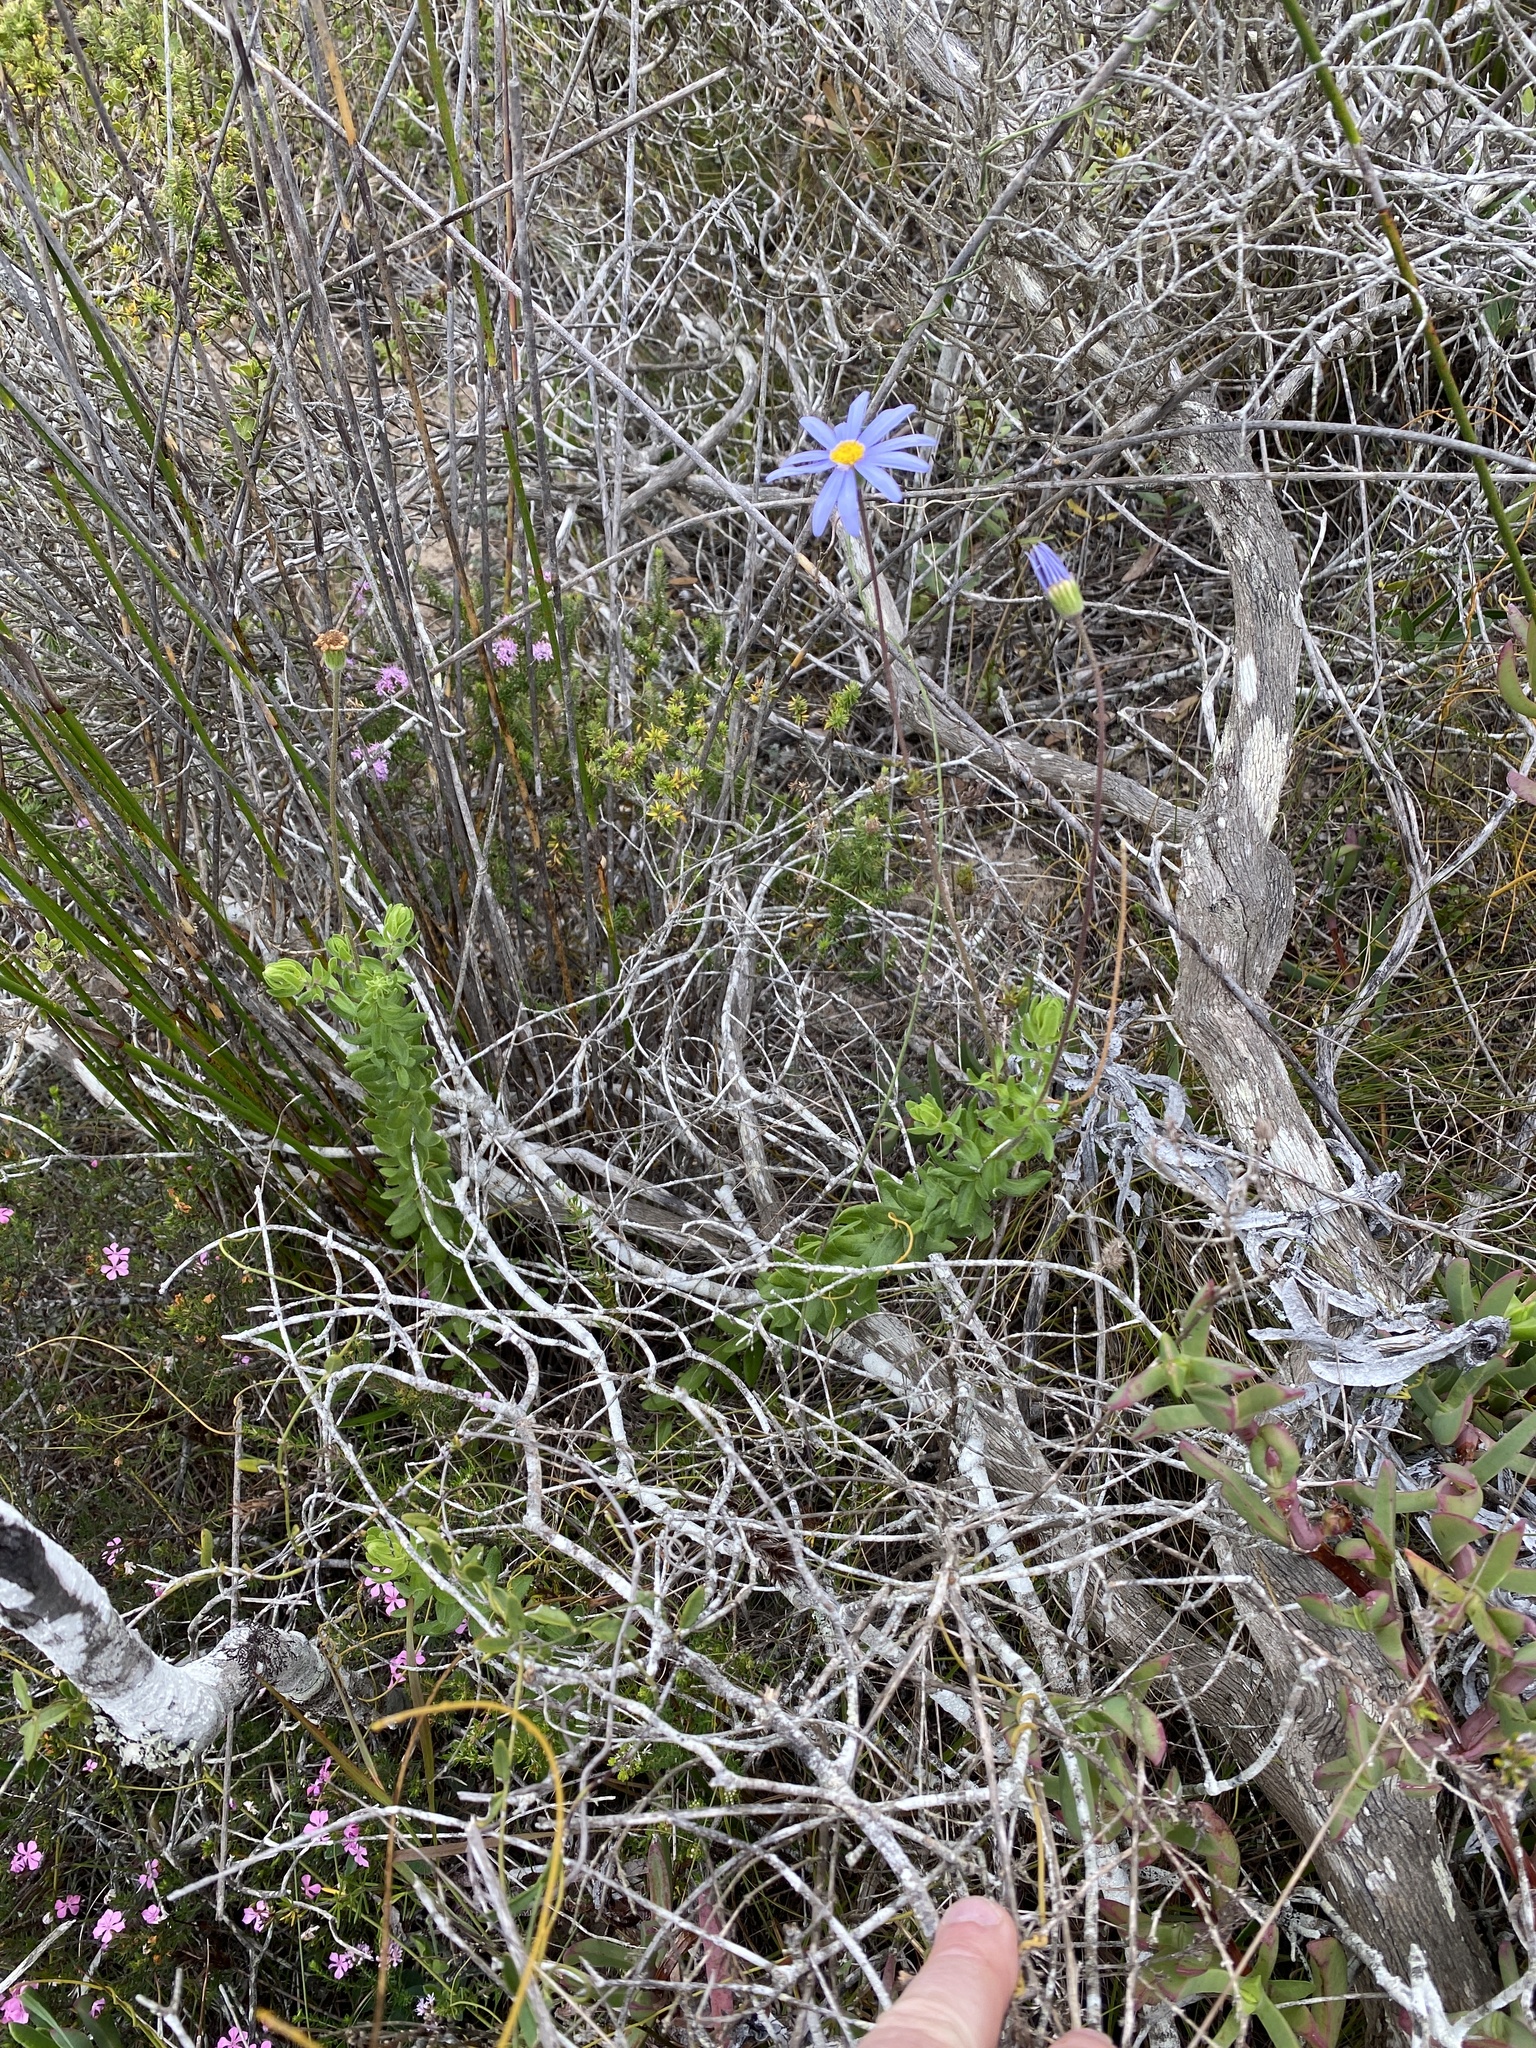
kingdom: Plantae
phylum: Tracheophyta
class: Magnoliopsida
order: Asterales
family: Asteraceae
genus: Felicia
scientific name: Felicia aethiopica
